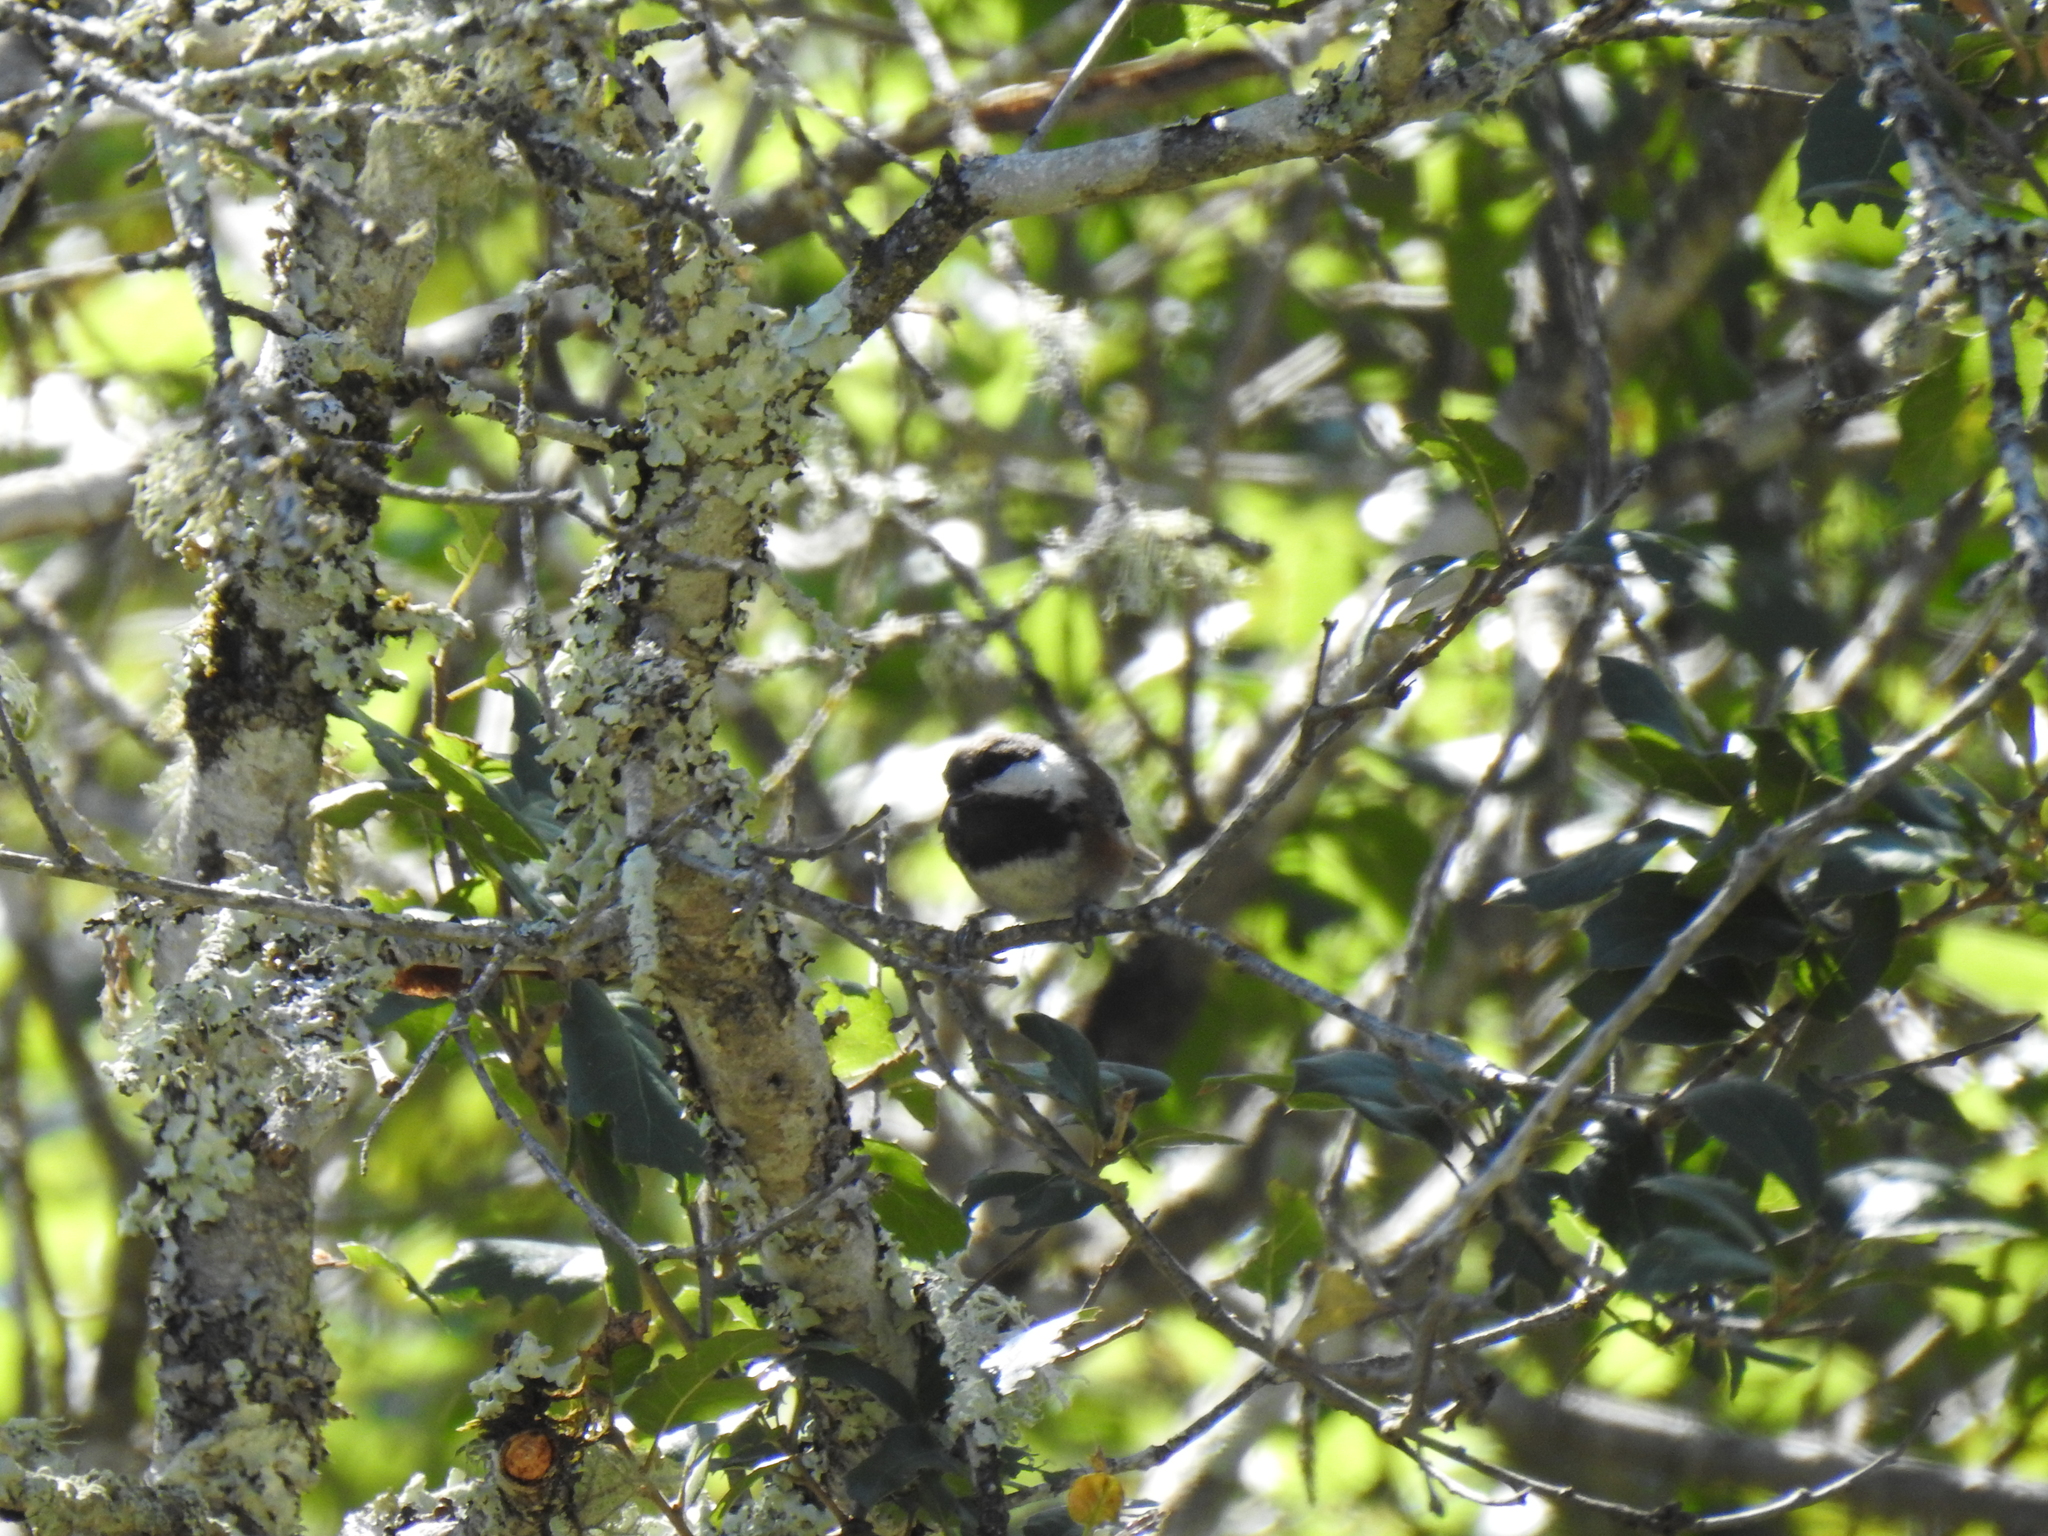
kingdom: Animalia
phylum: Chordata
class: Aves
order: Passeriformes
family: Paridae
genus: Poecile
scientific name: Poecile rufescens
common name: Chestnut-backed chickadee
